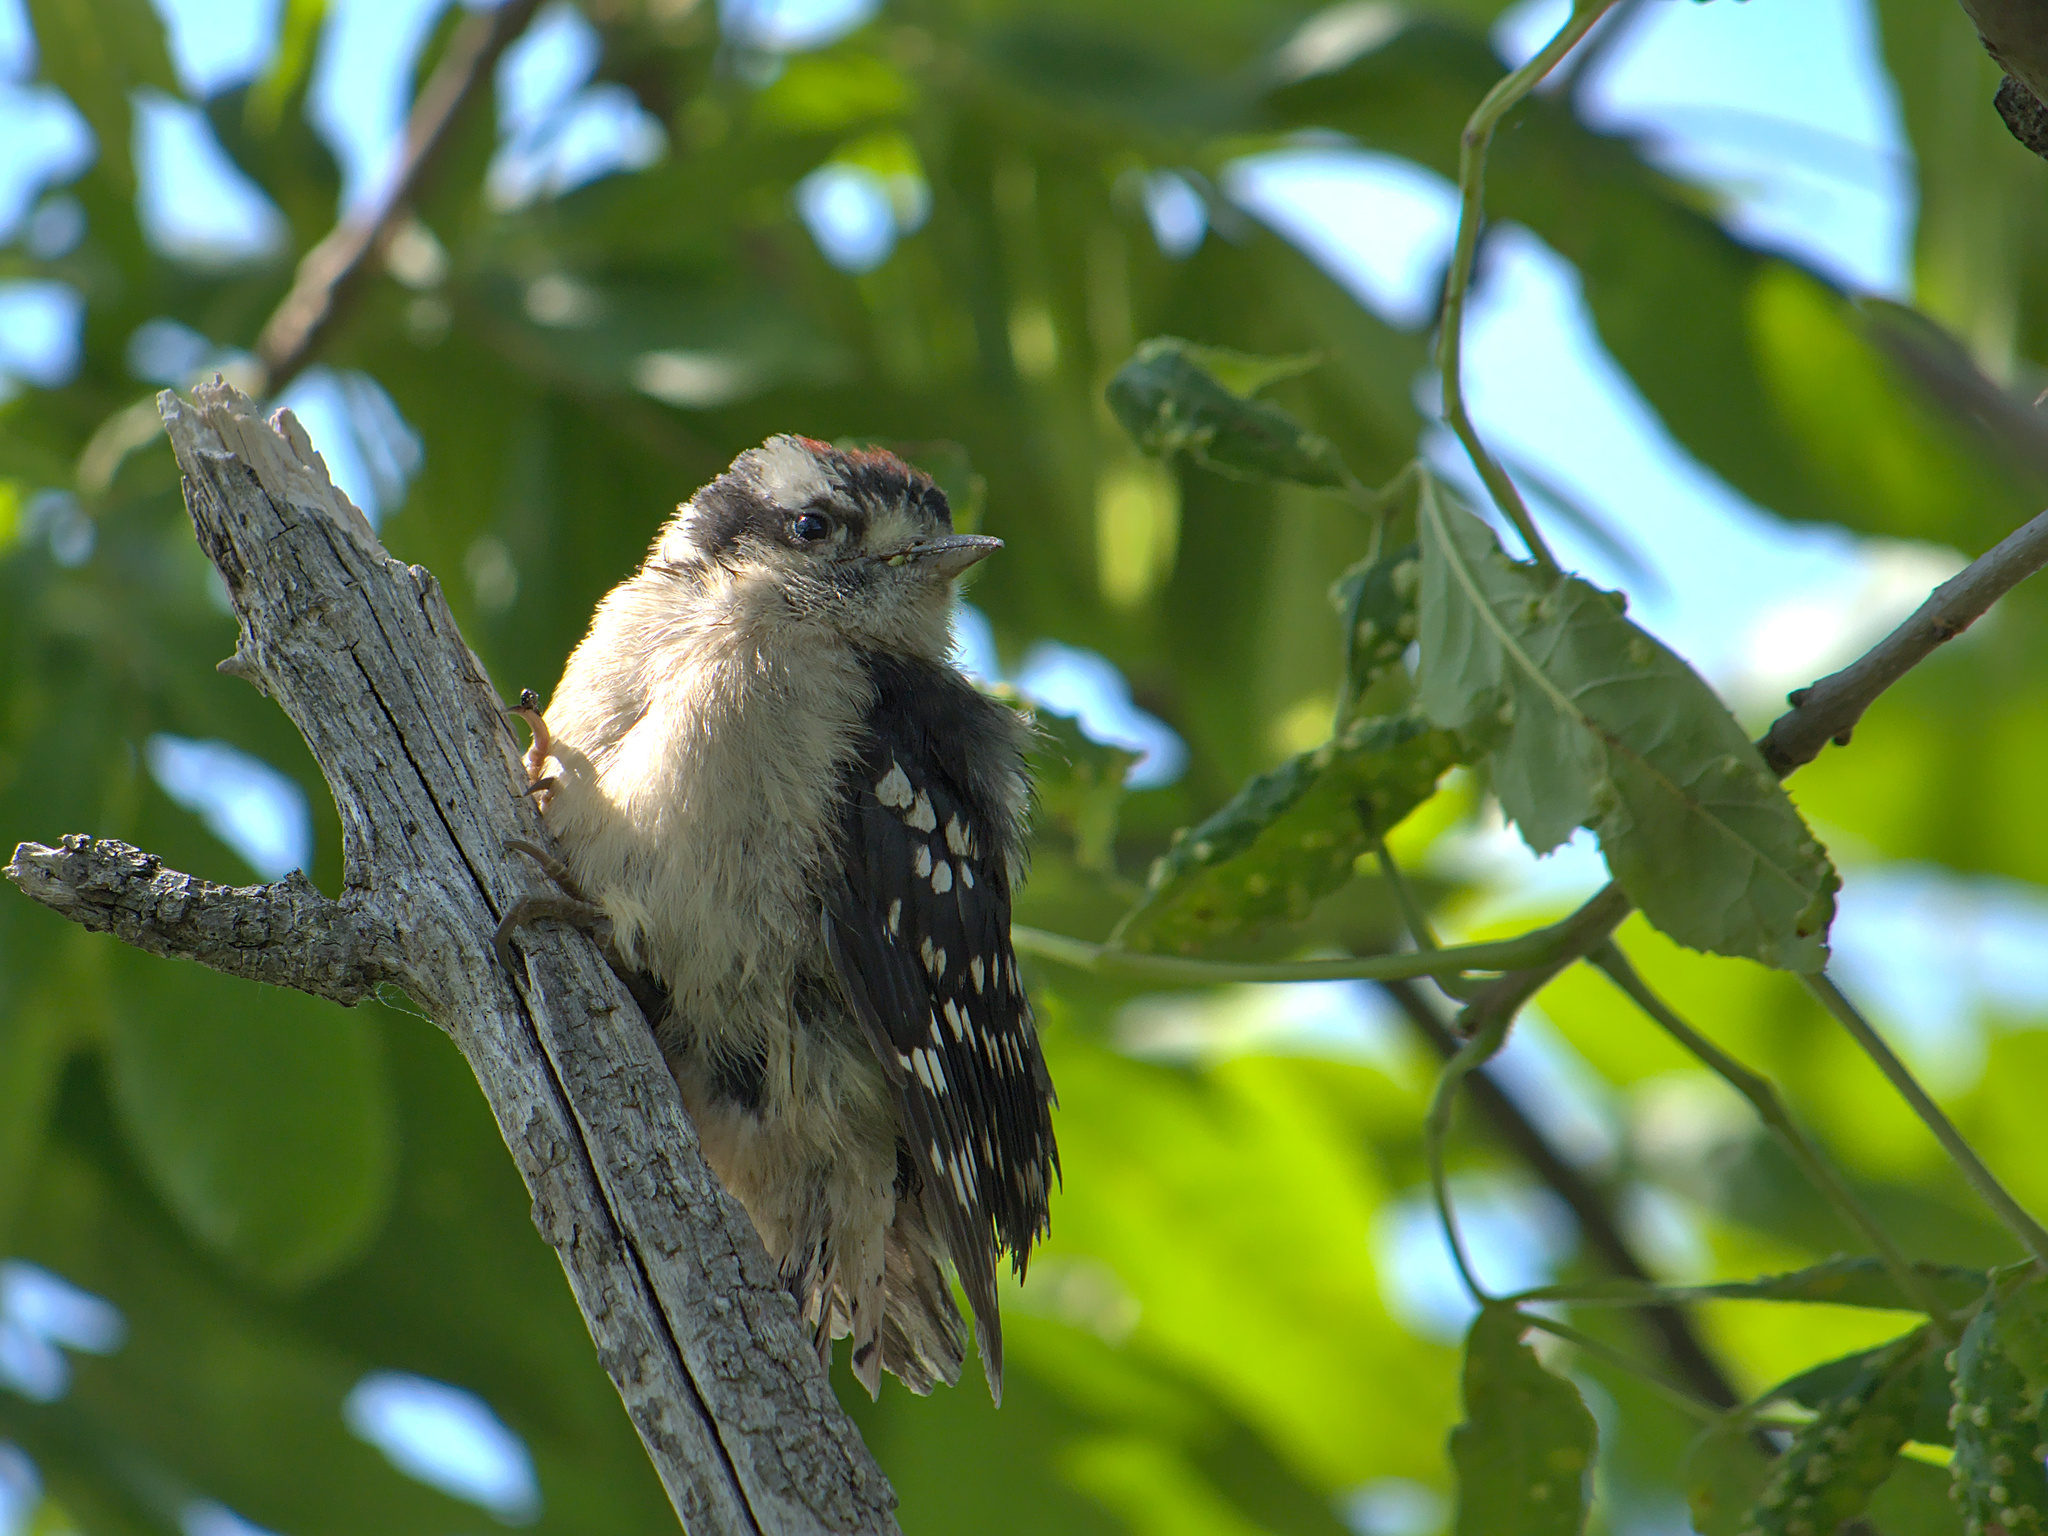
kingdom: Animalia
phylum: Chordata
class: Aves
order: Piciformes
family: Picidae
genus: Dryobates
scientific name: Dryobates pubescens
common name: Downy woodpecker
